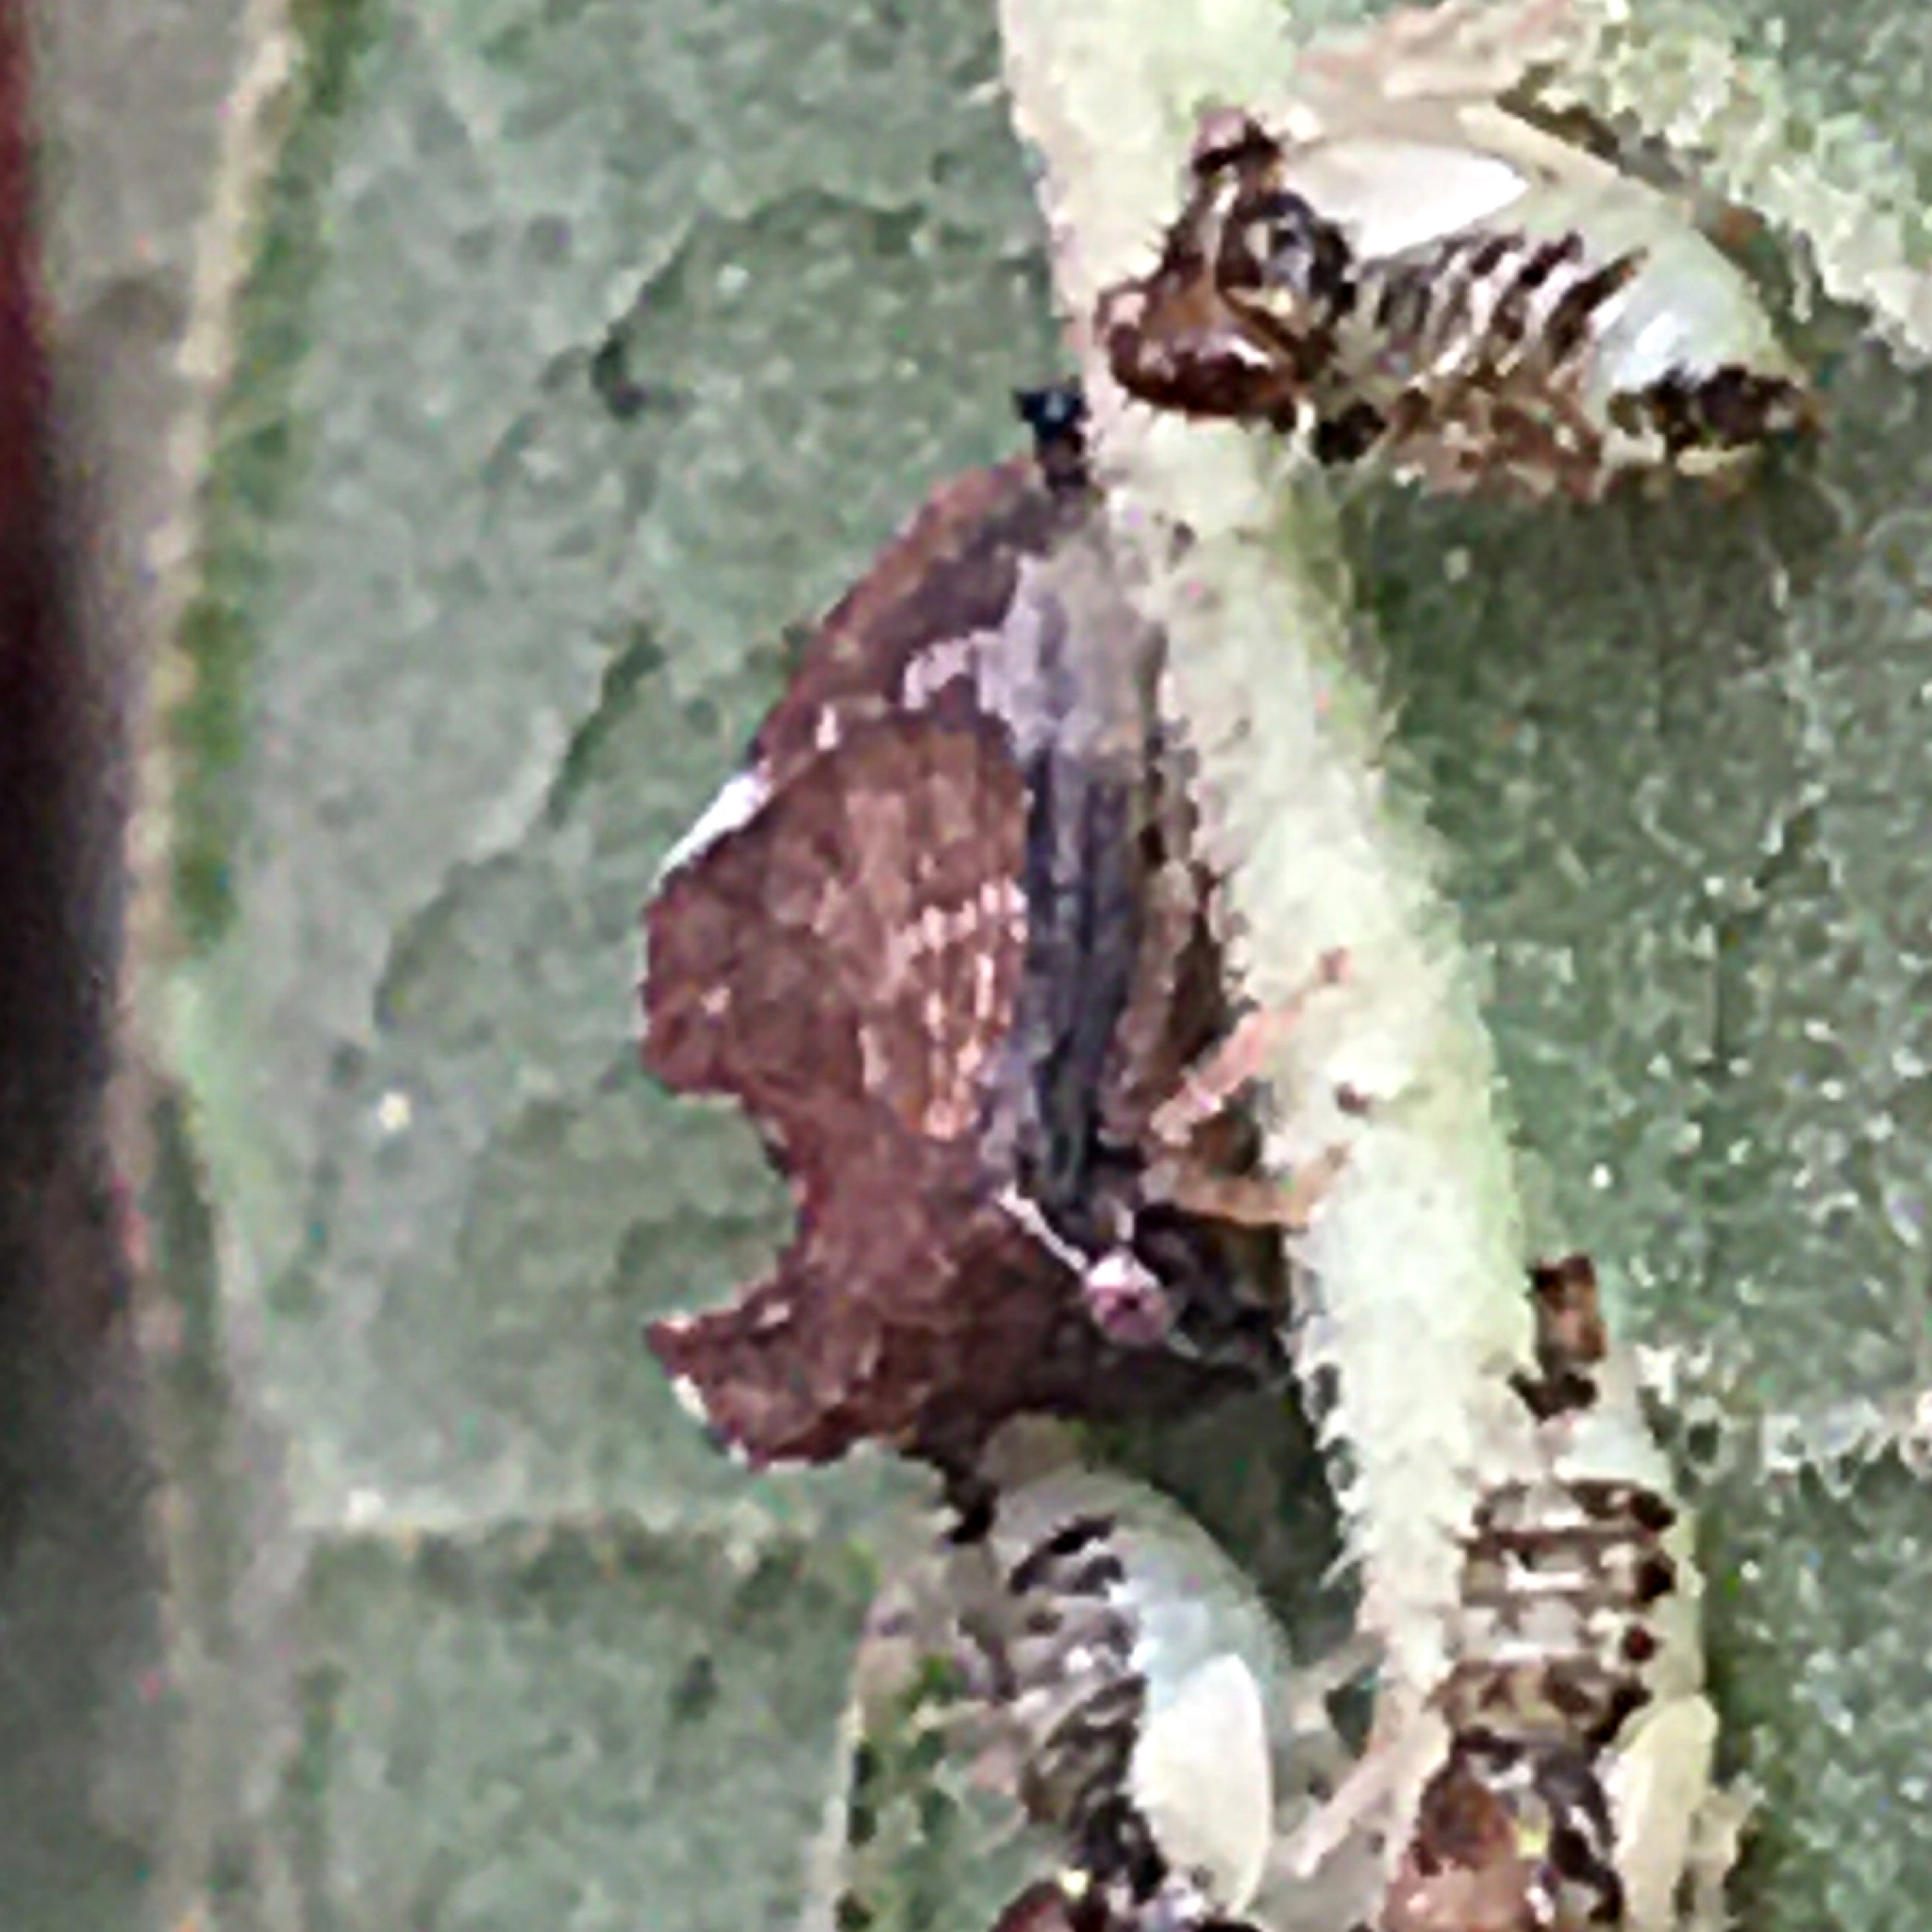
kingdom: Animalia
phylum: Arthropoda
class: Insecta
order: Hemiptera
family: Membracidae
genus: Entylia
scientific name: Entylia carinata
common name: Keeled treehopper
